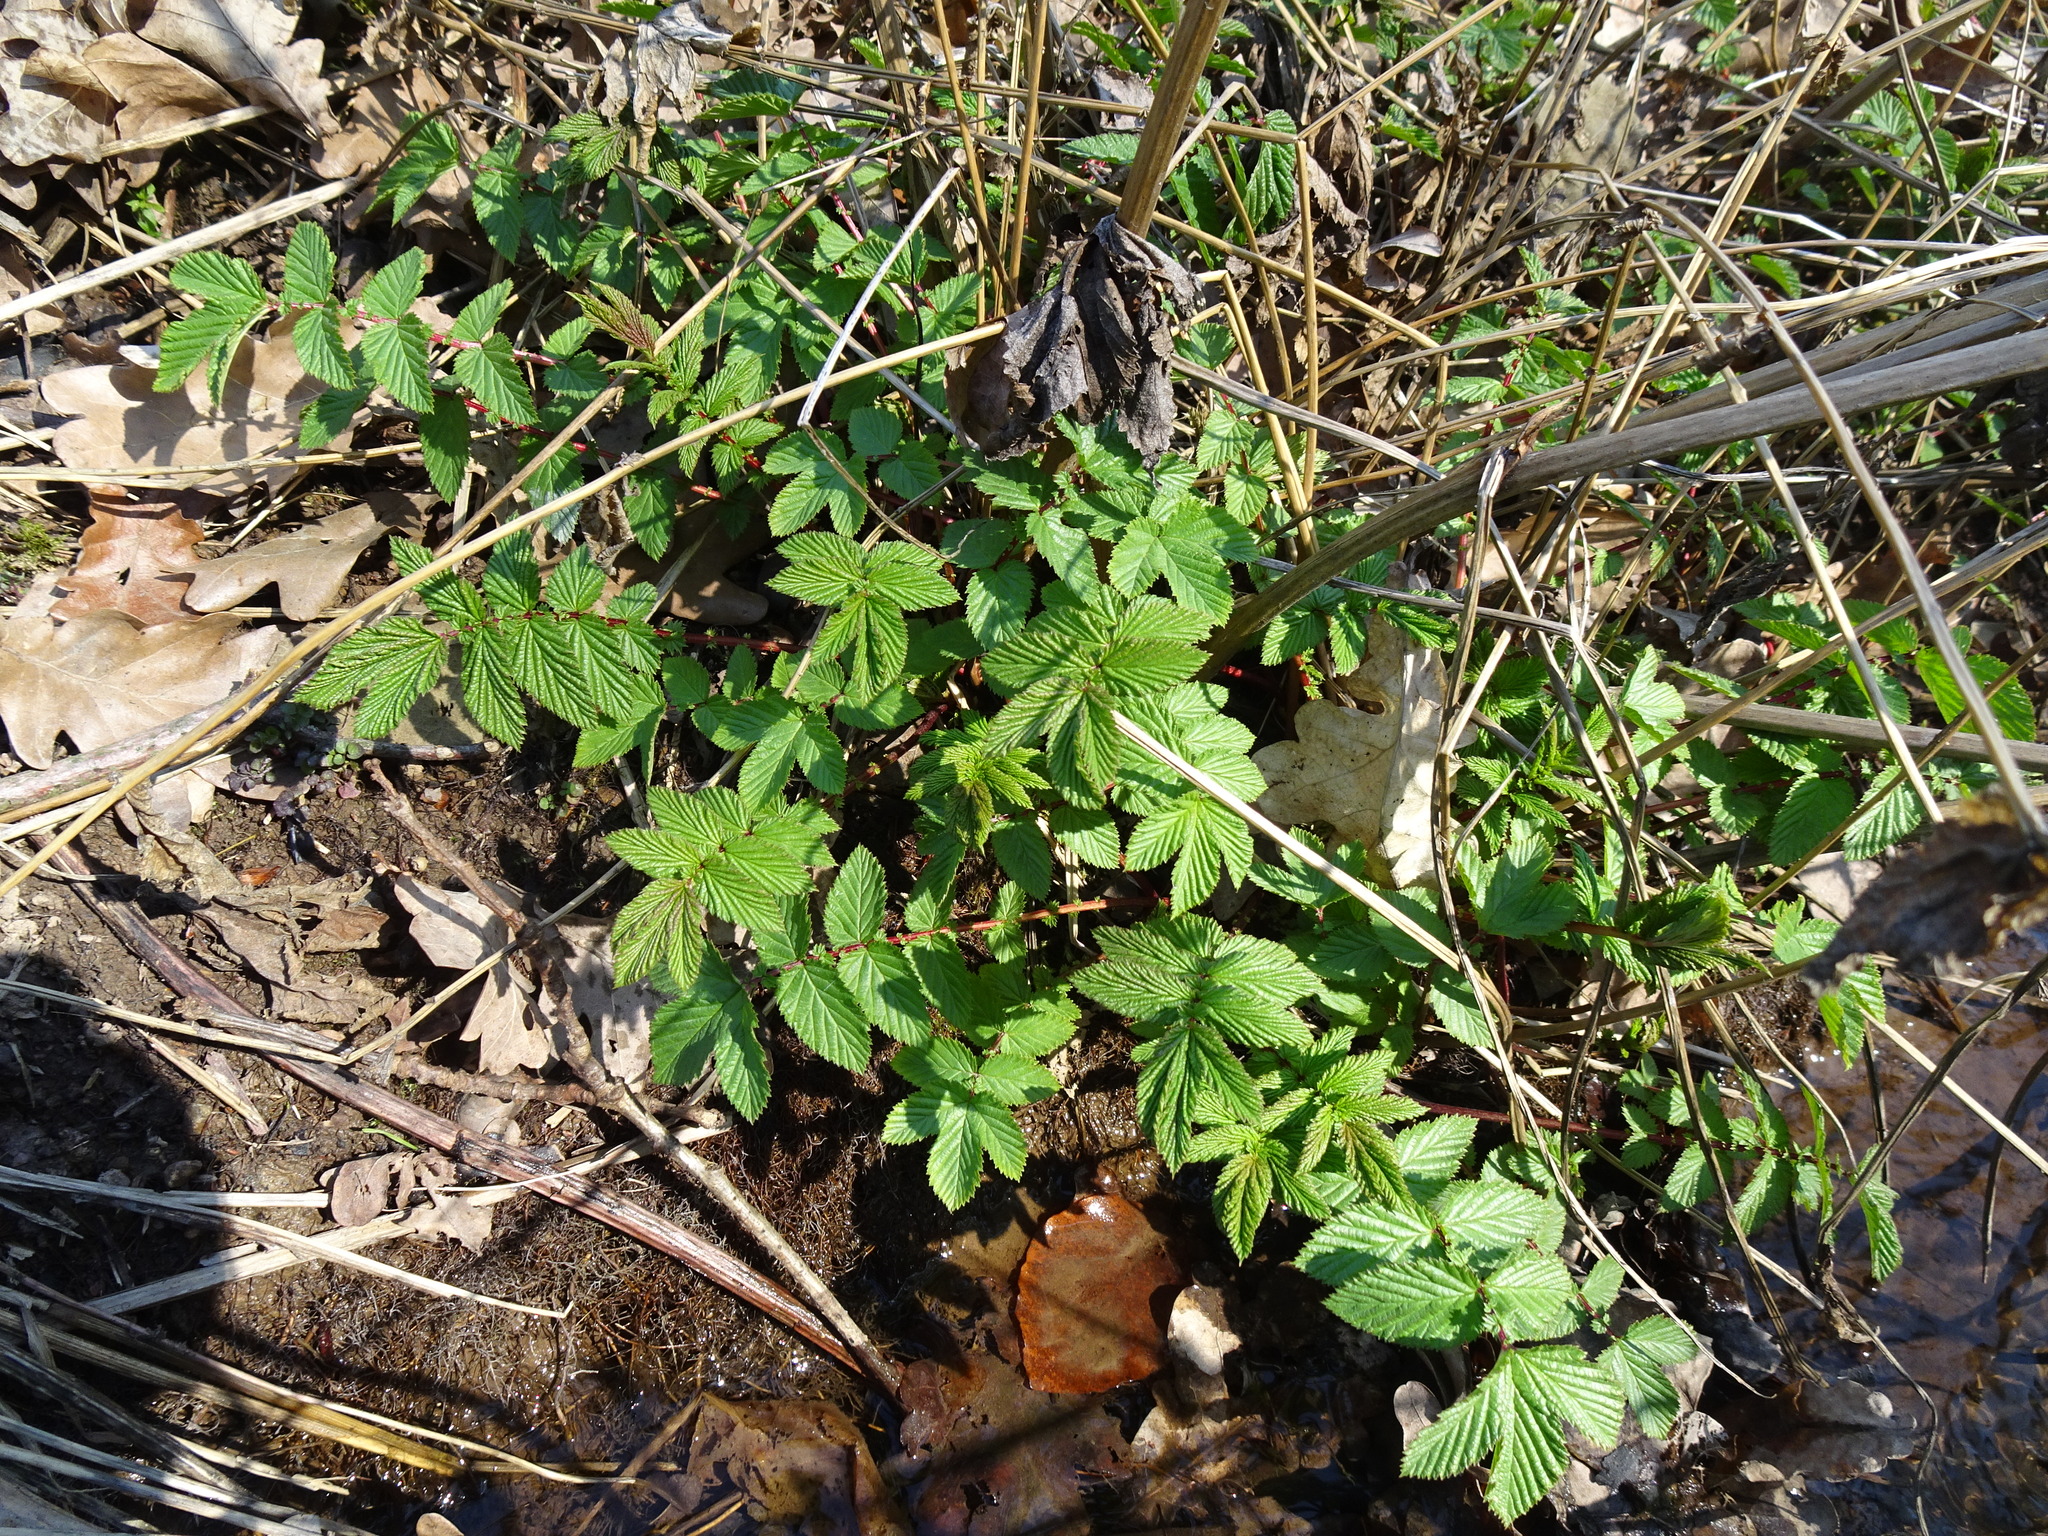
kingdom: Plantae
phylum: Tracheophyta
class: Magnoliopsida
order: Rosales
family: Rosaceae
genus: Filipendula
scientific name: Filipendula ulmaria
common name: Meadowsweet
